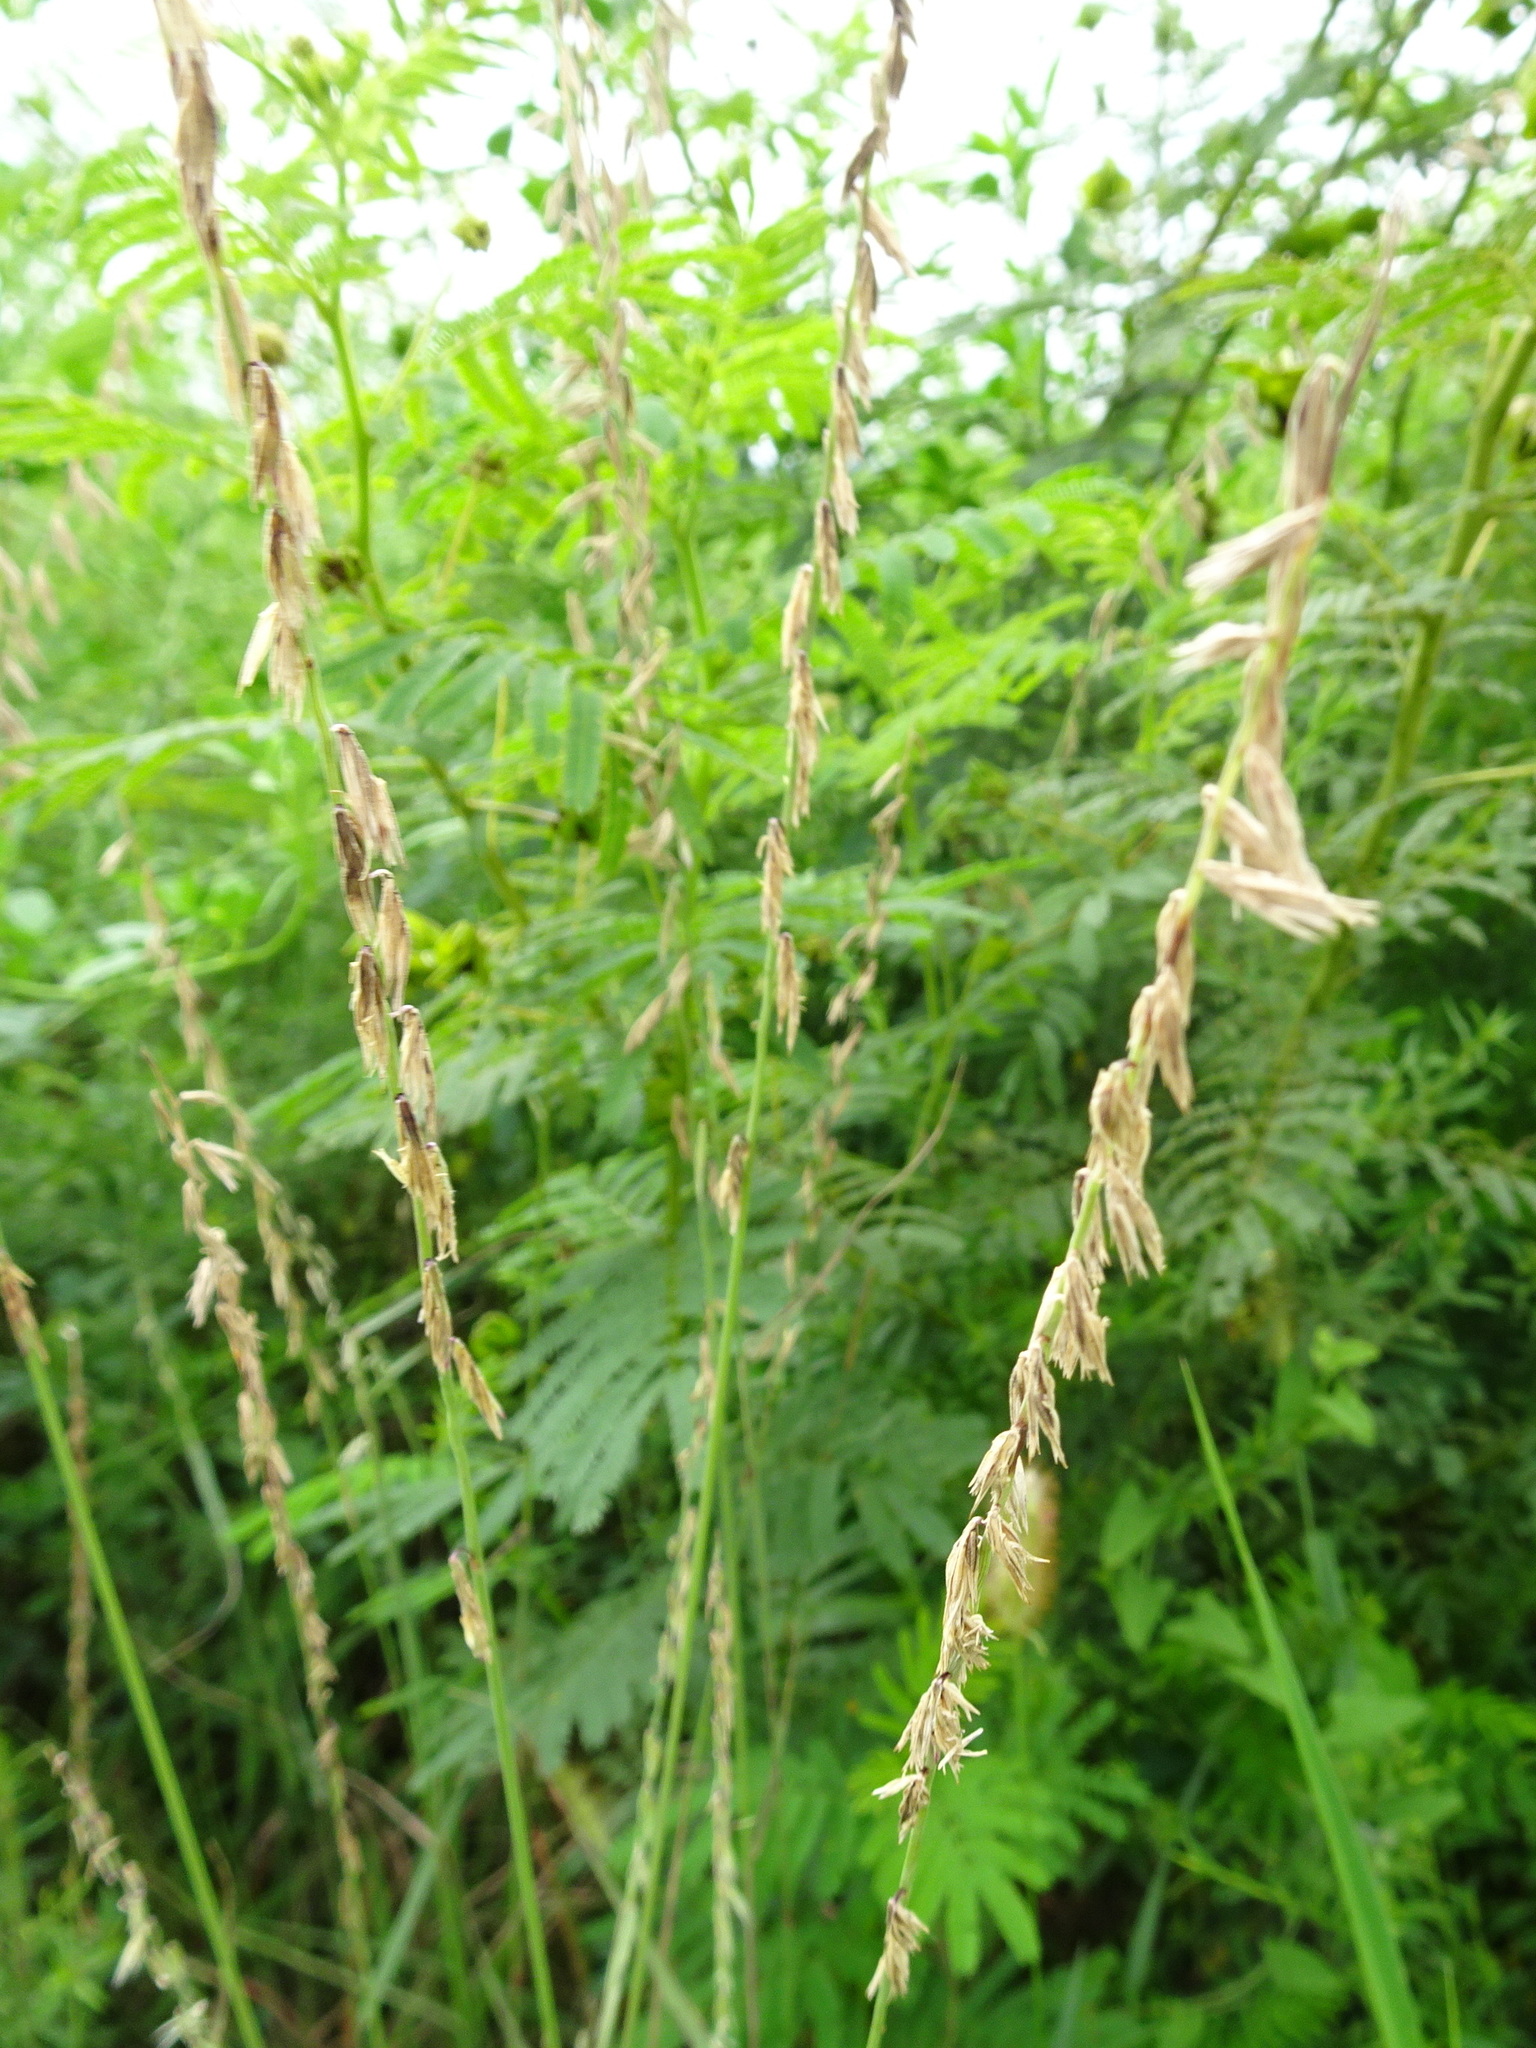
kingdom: Plantae
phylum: Tracheophyta
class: Liliopsida
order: Poales
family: Poaceae
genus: Bouteloua
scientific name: Bouteloua curtipendula
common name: Side-oats grama
